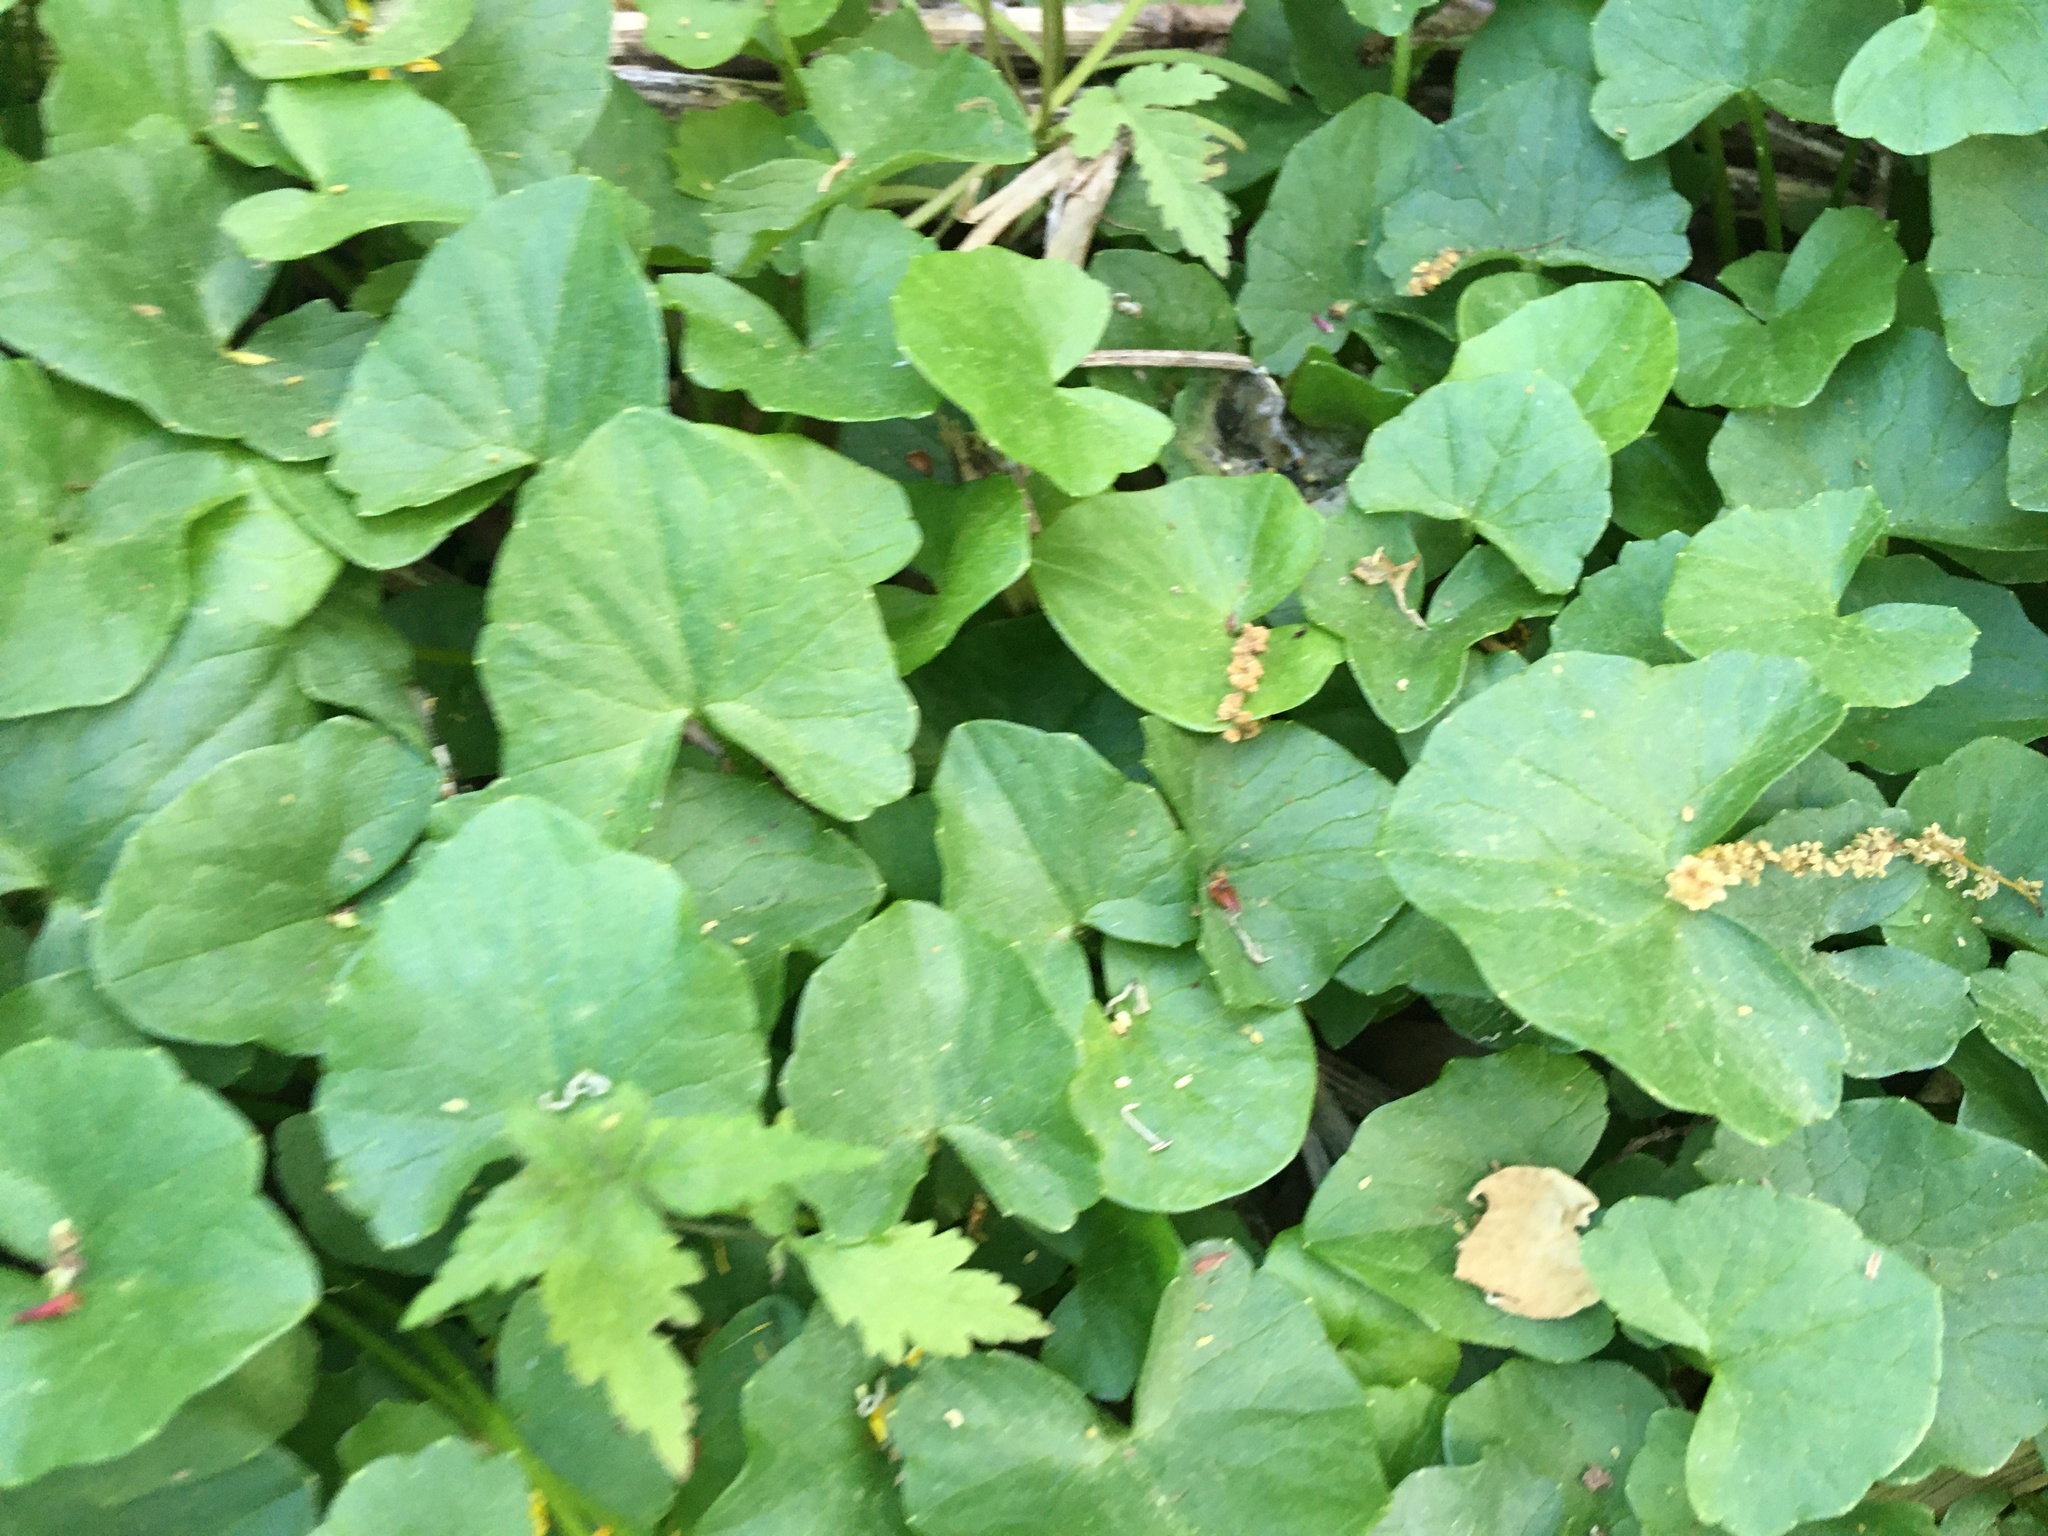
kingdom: Plantae
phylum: Tracheophyta
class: Magnoliopsida
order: Ranunculales
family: Ranunculaceae
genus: Ficaria
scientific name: Ficaria verna
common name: Lesser celandine
